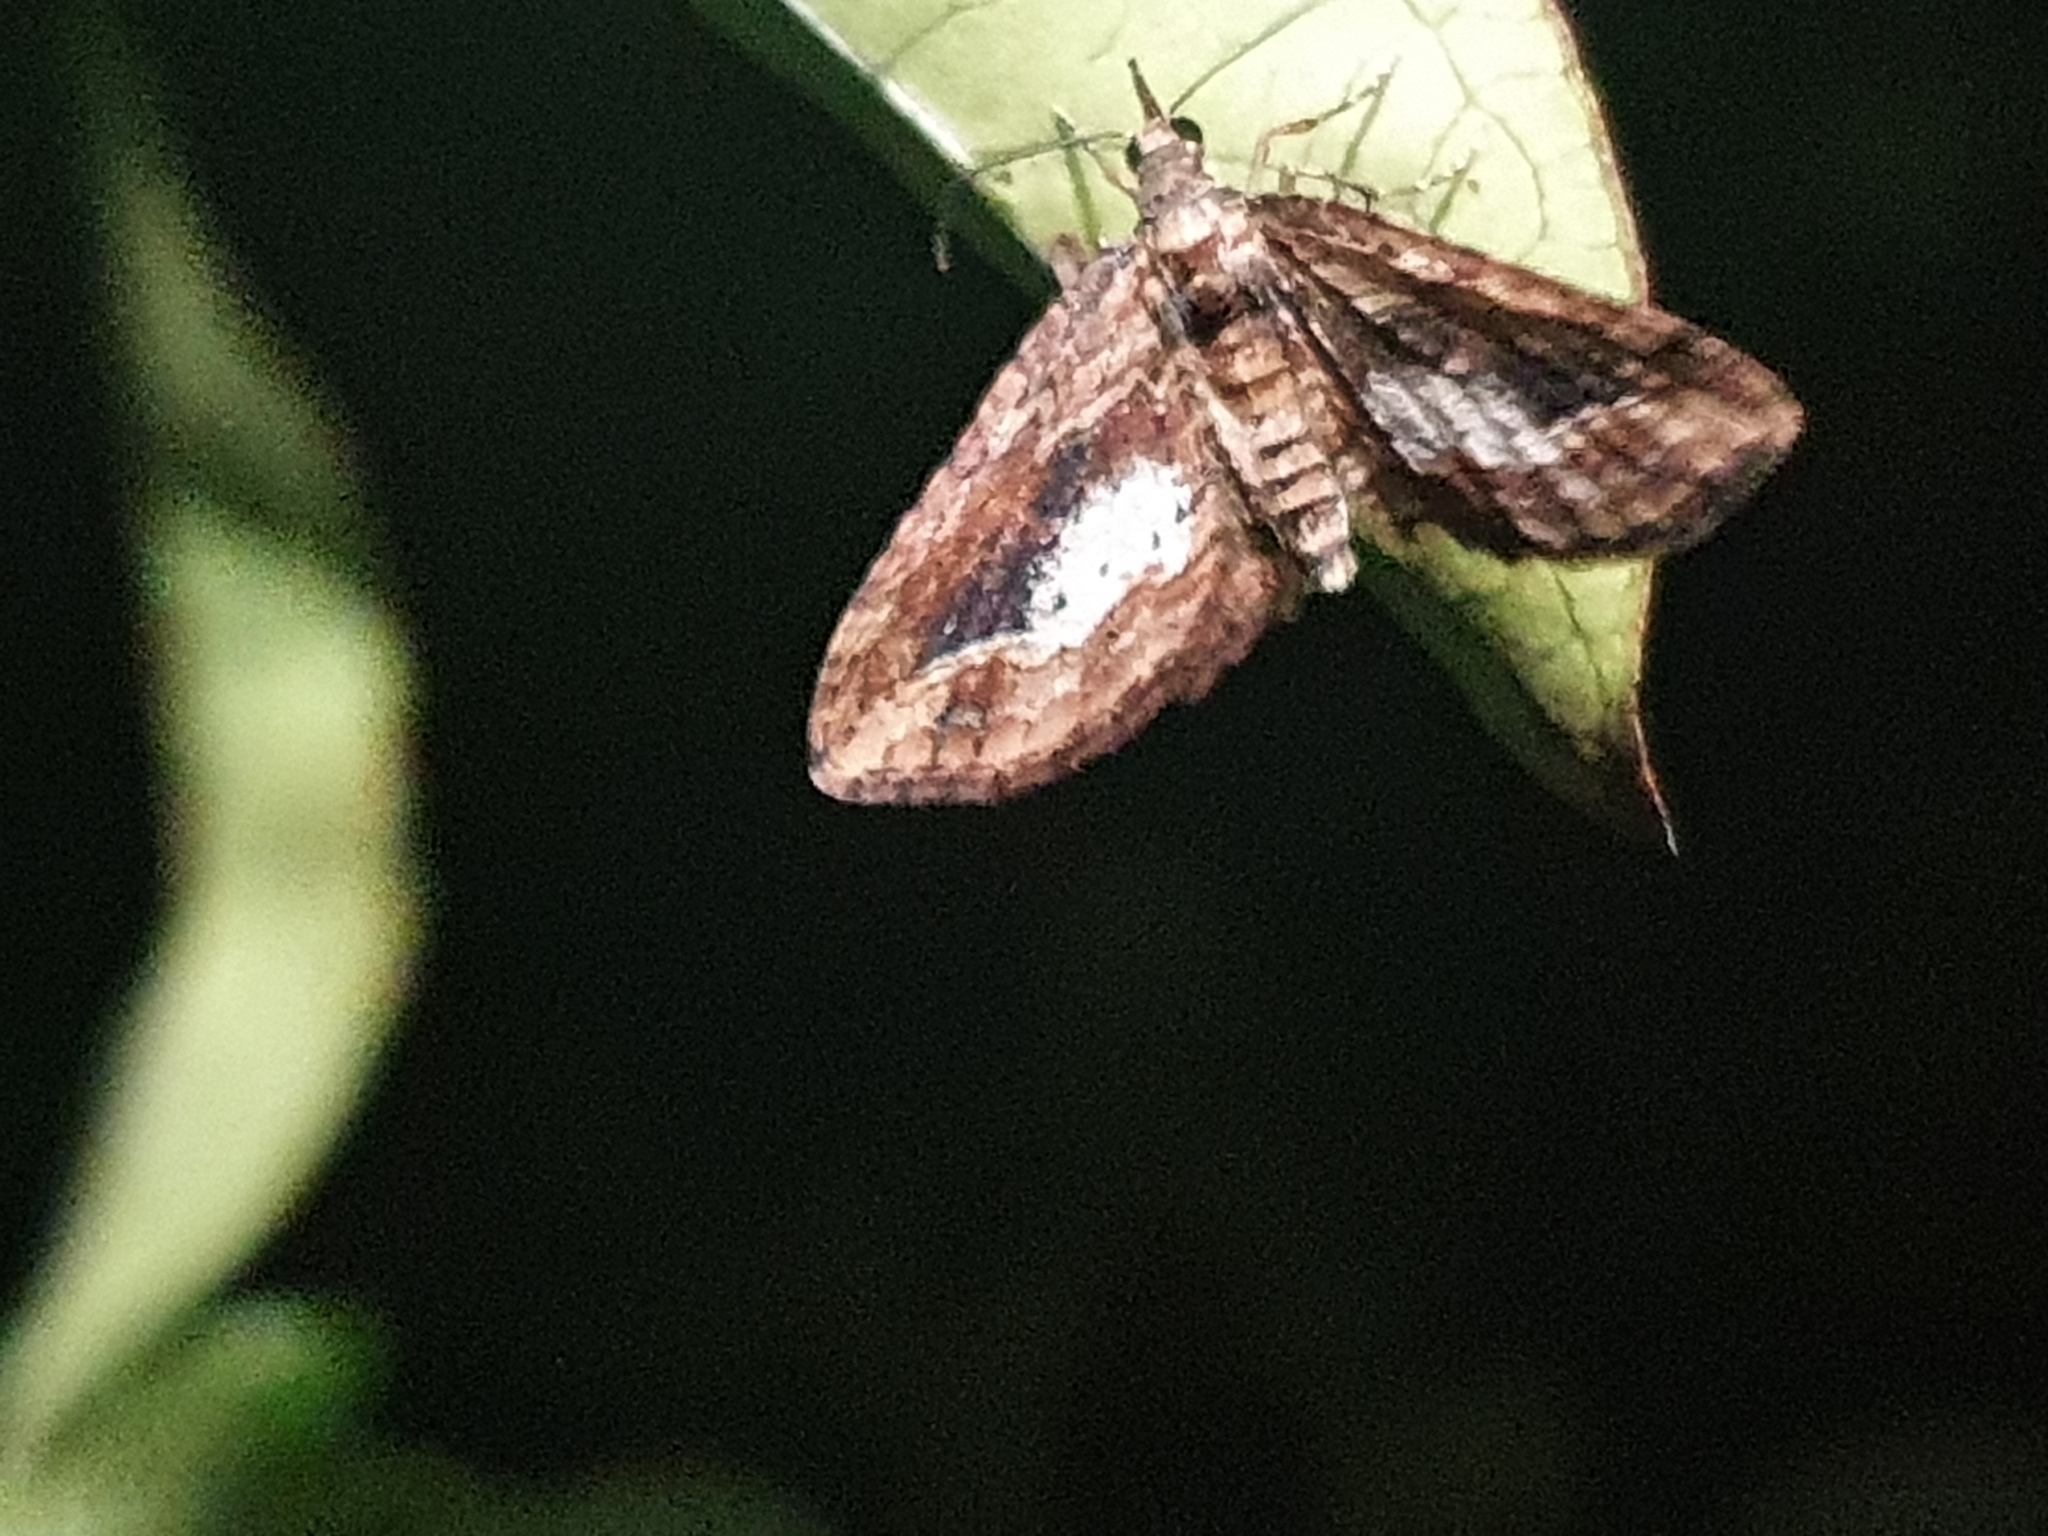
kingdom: Animalia
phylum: Arthropoda
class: Insecta
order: Lepidoptera
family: Geometridae
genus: Chloroclystis
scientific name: Chloroclystis filata
